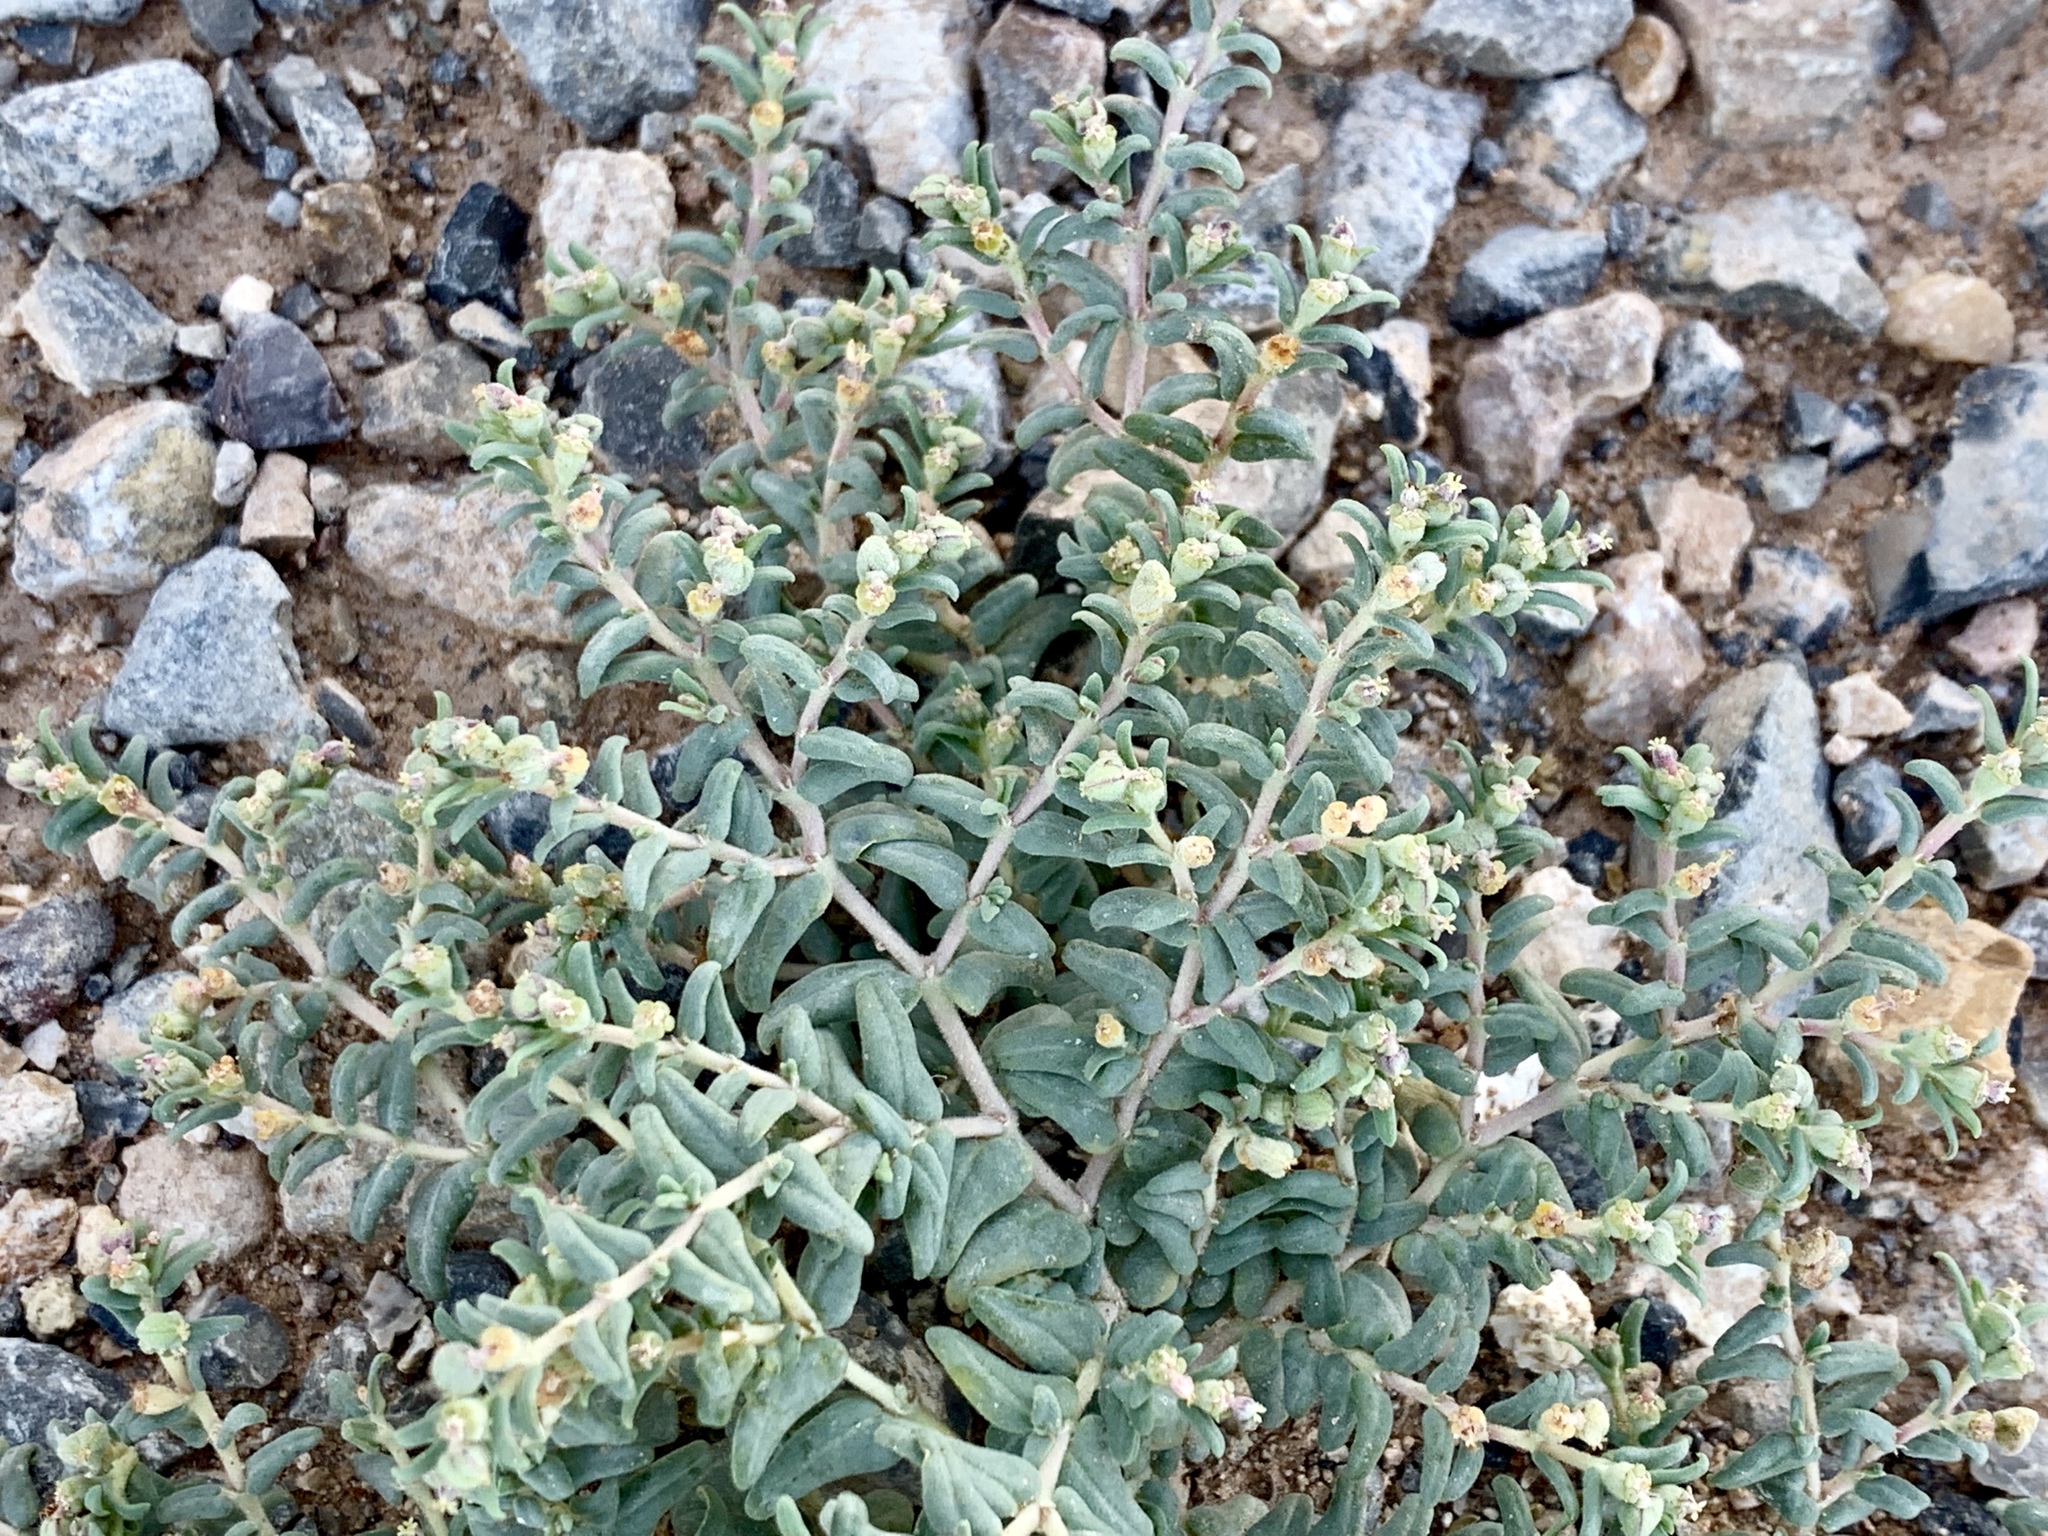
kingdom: Plantae
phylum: Tracheophyta
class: Magnoliopsida
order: Malpighiales
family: Euphorbiaceae
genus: Euphorbia
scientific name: Euphorbia lata
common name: Hoary euphorbia
